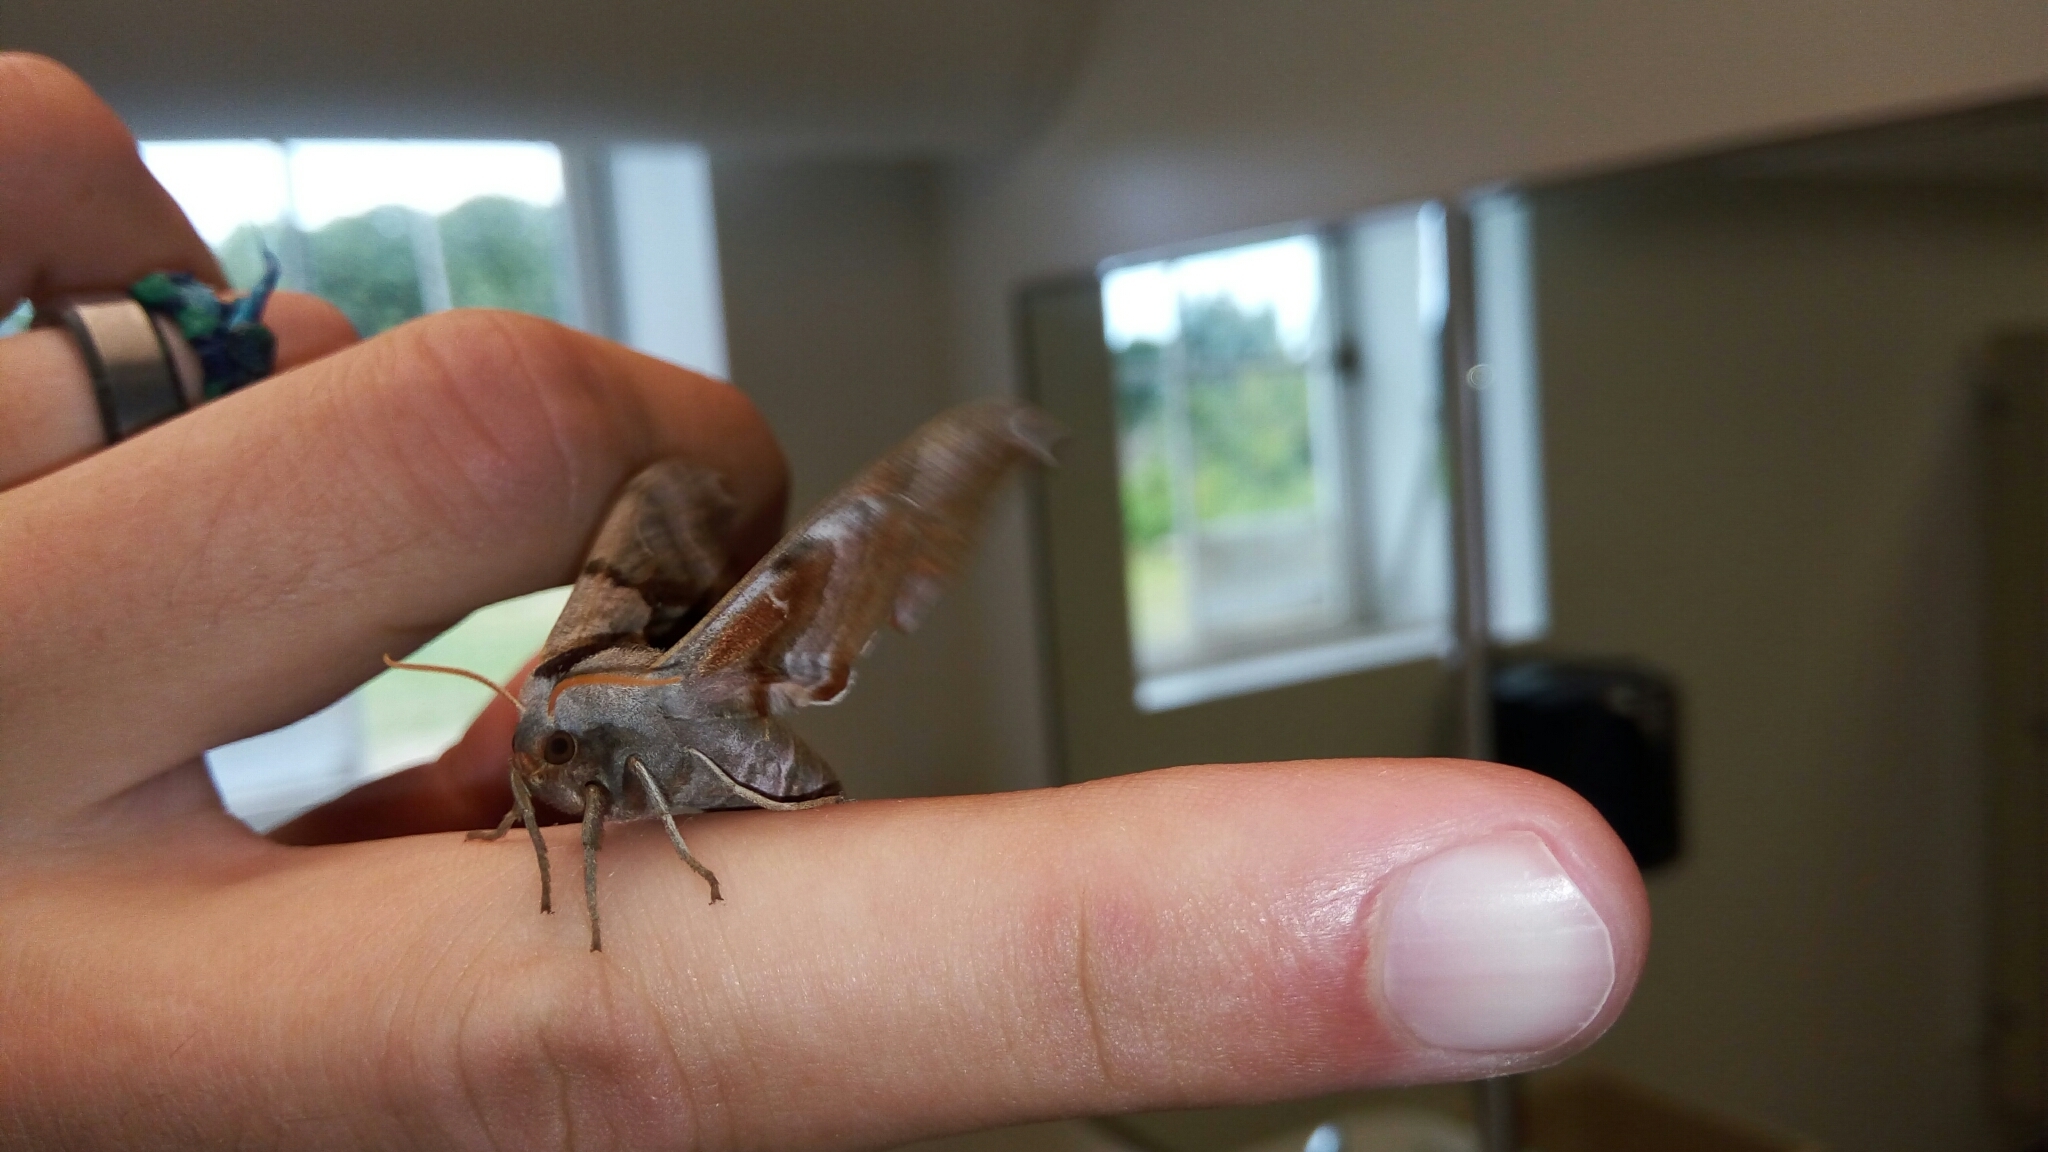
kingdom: Animalia
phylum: Arthropoda
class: Insecta
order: Lepidoptera
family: Sphingidae
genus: Smerinthus
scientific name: Smerinthus jamaicensis
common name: Twin spotted sphinx
